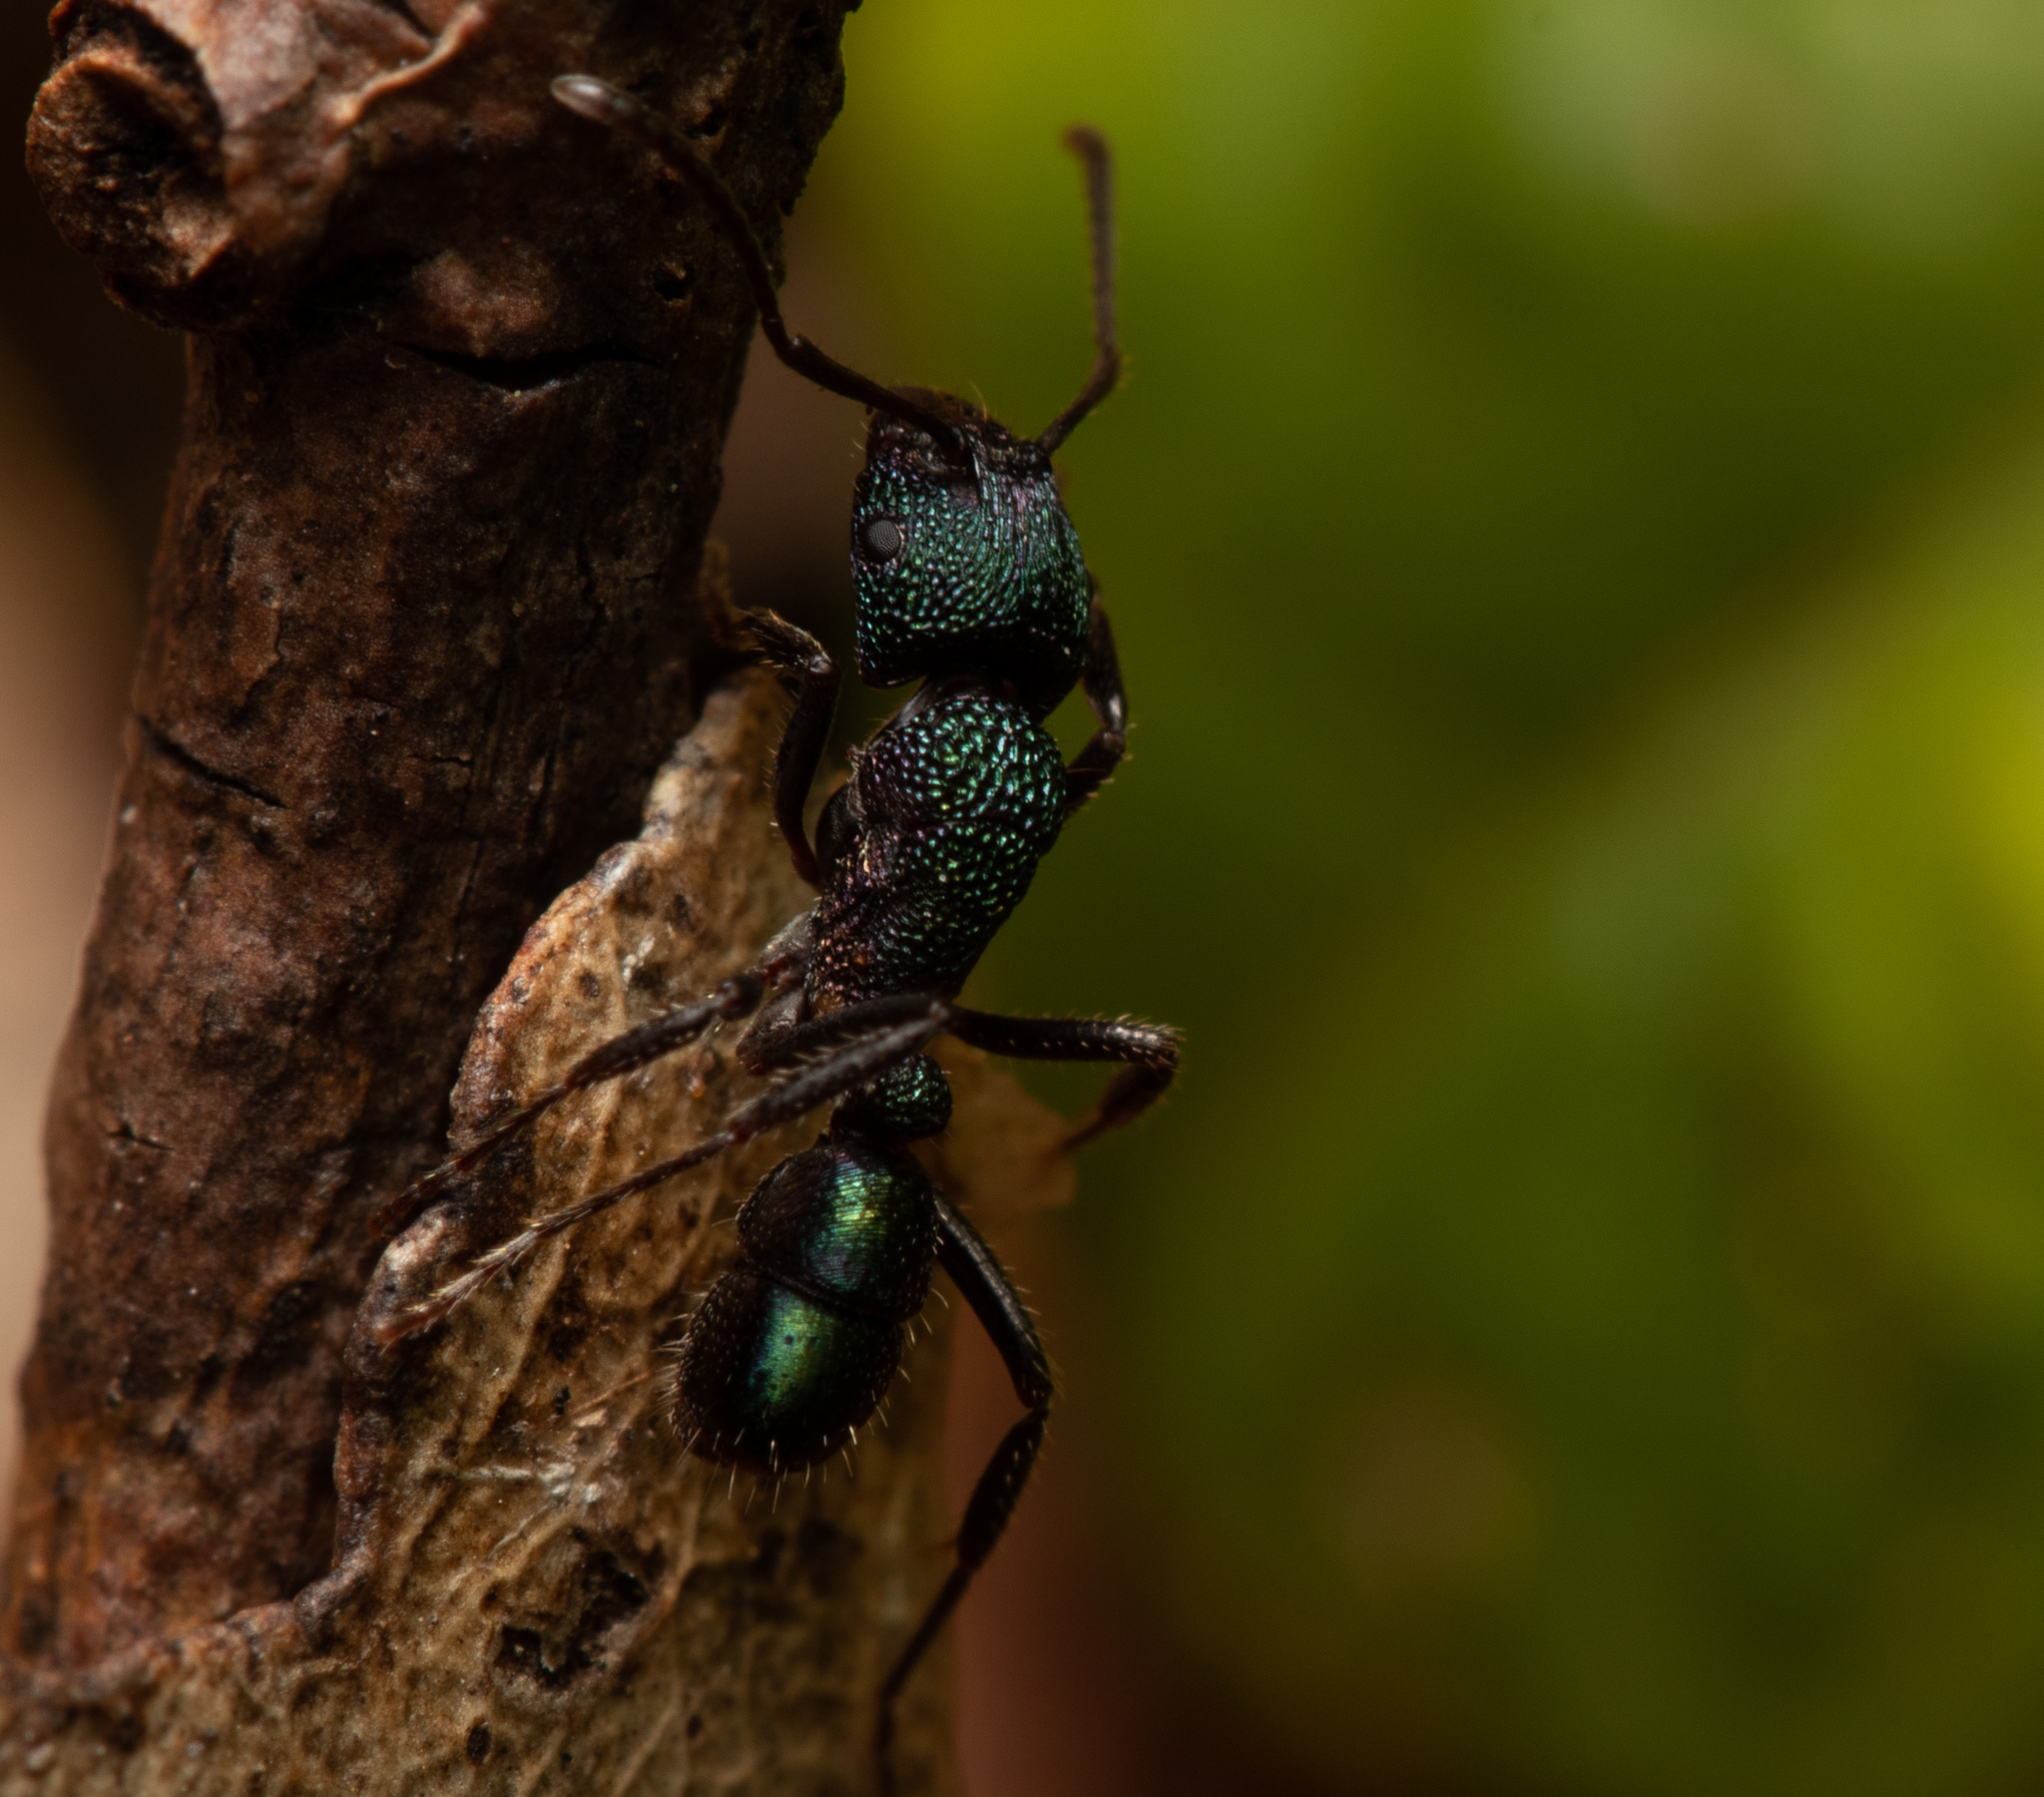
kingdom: Animalia
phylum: Arthropoda
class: Insecta
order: Hymenoptera
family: Formicidae
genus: Rhytidoponera
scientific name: Rhytidoponera metallica
